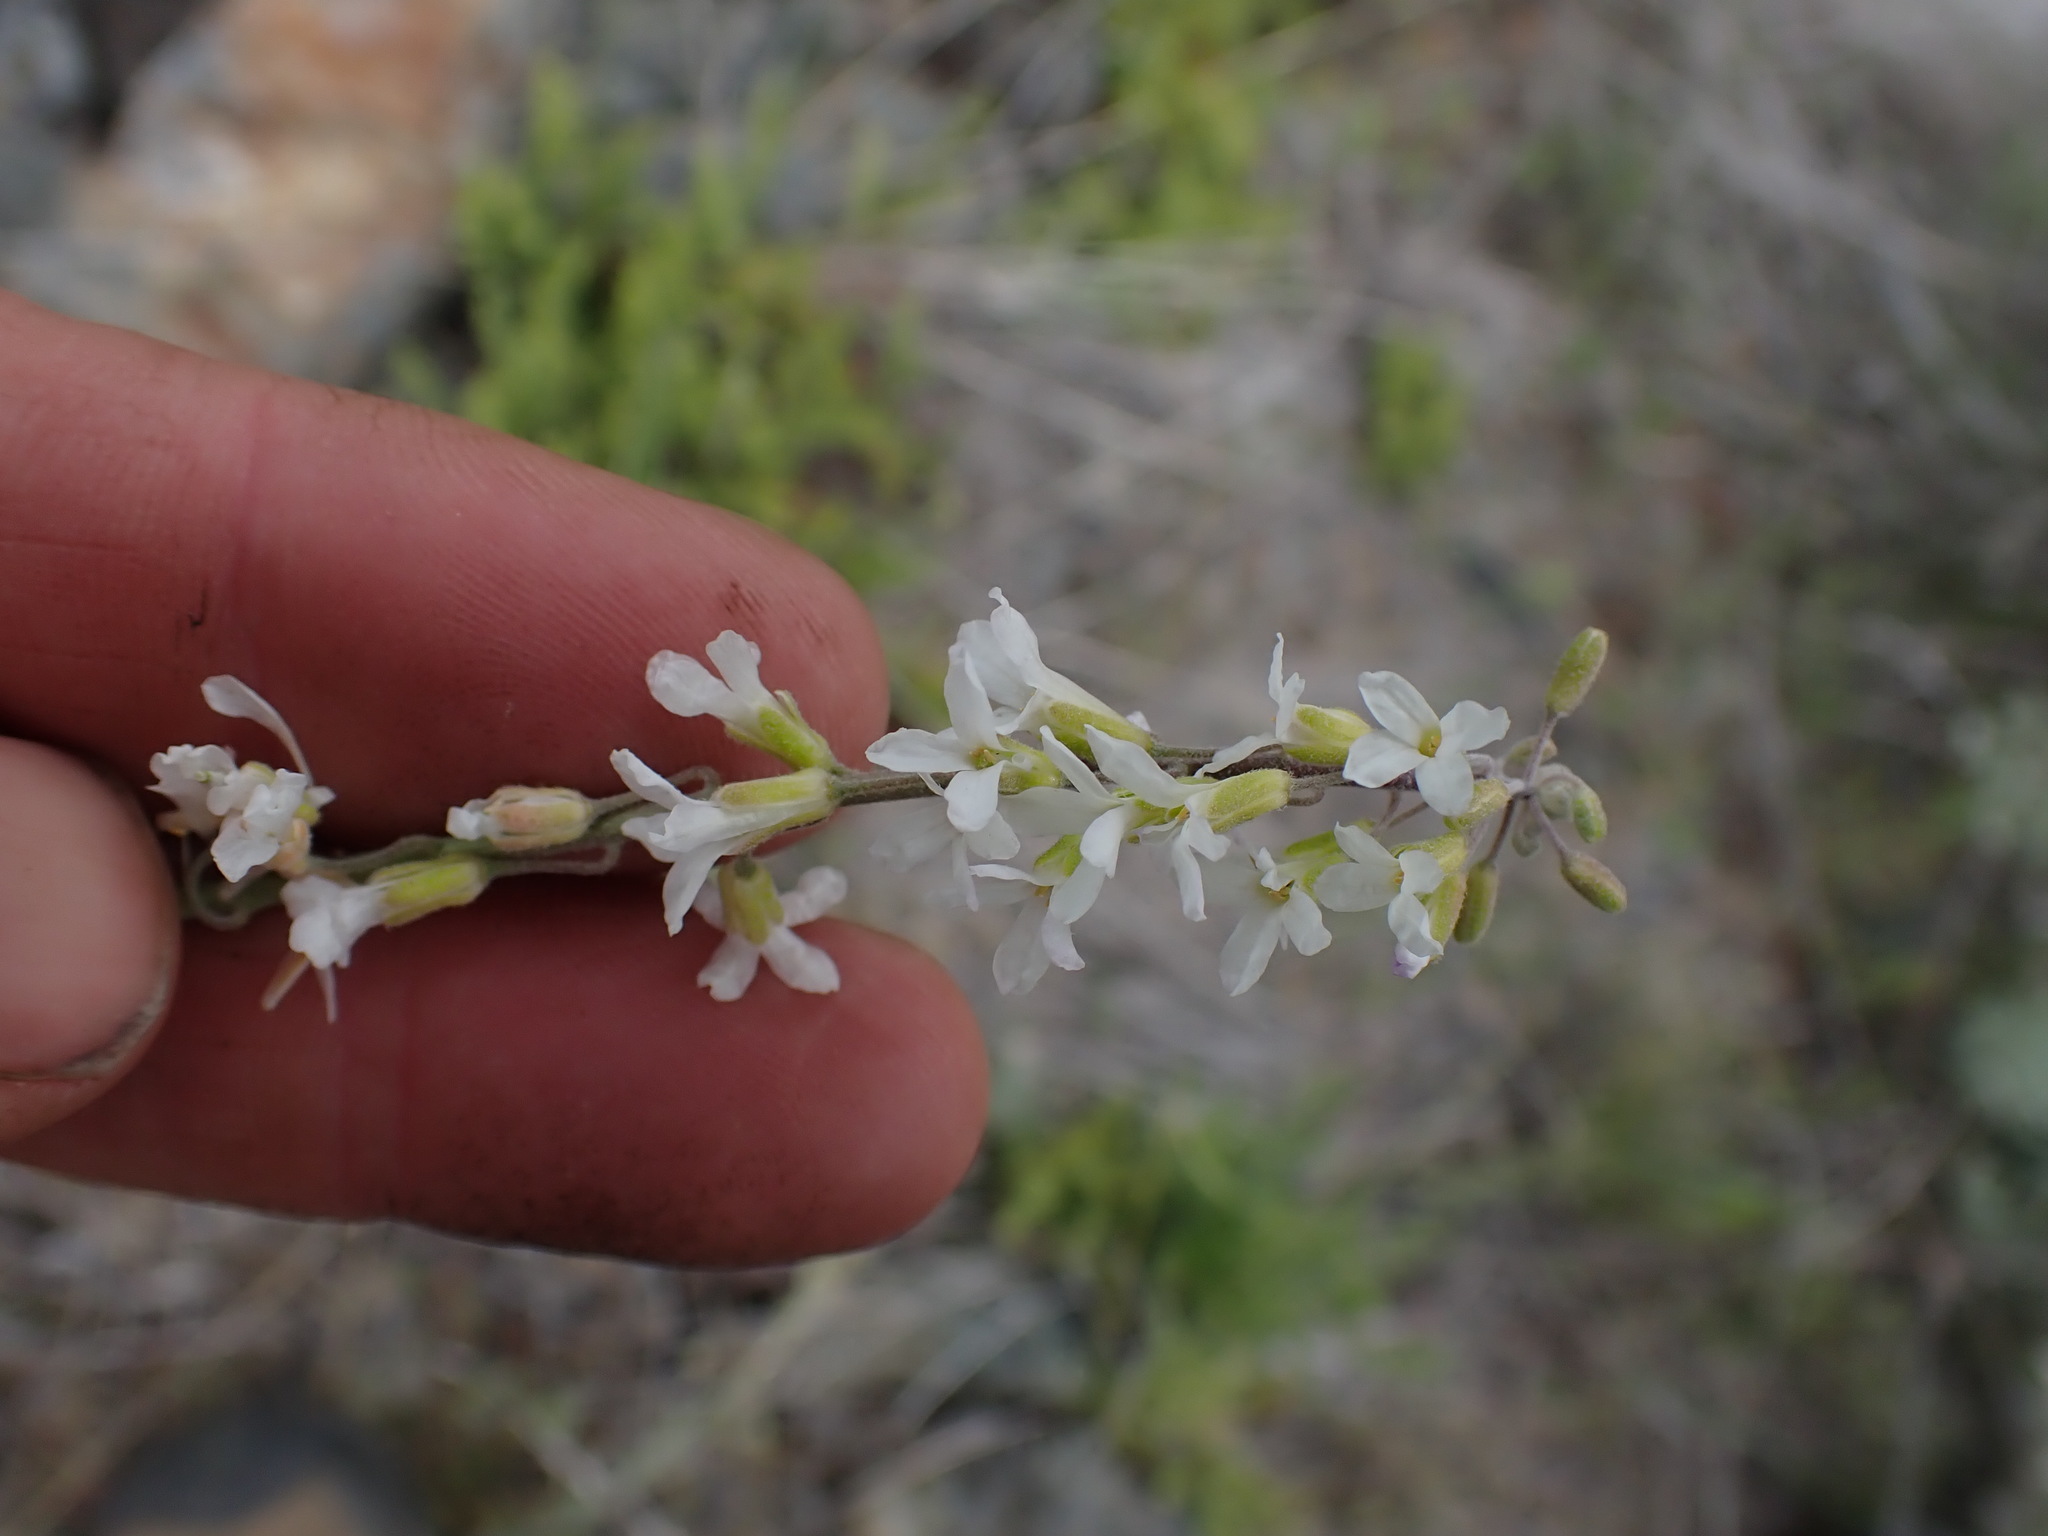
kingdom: Plantae
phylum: Tracheophyta
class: Magnoliopsida
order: Brassicales
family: Brassicaceae
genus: Boechera
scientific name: Boechera retrofracta
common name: Dangling suncress
